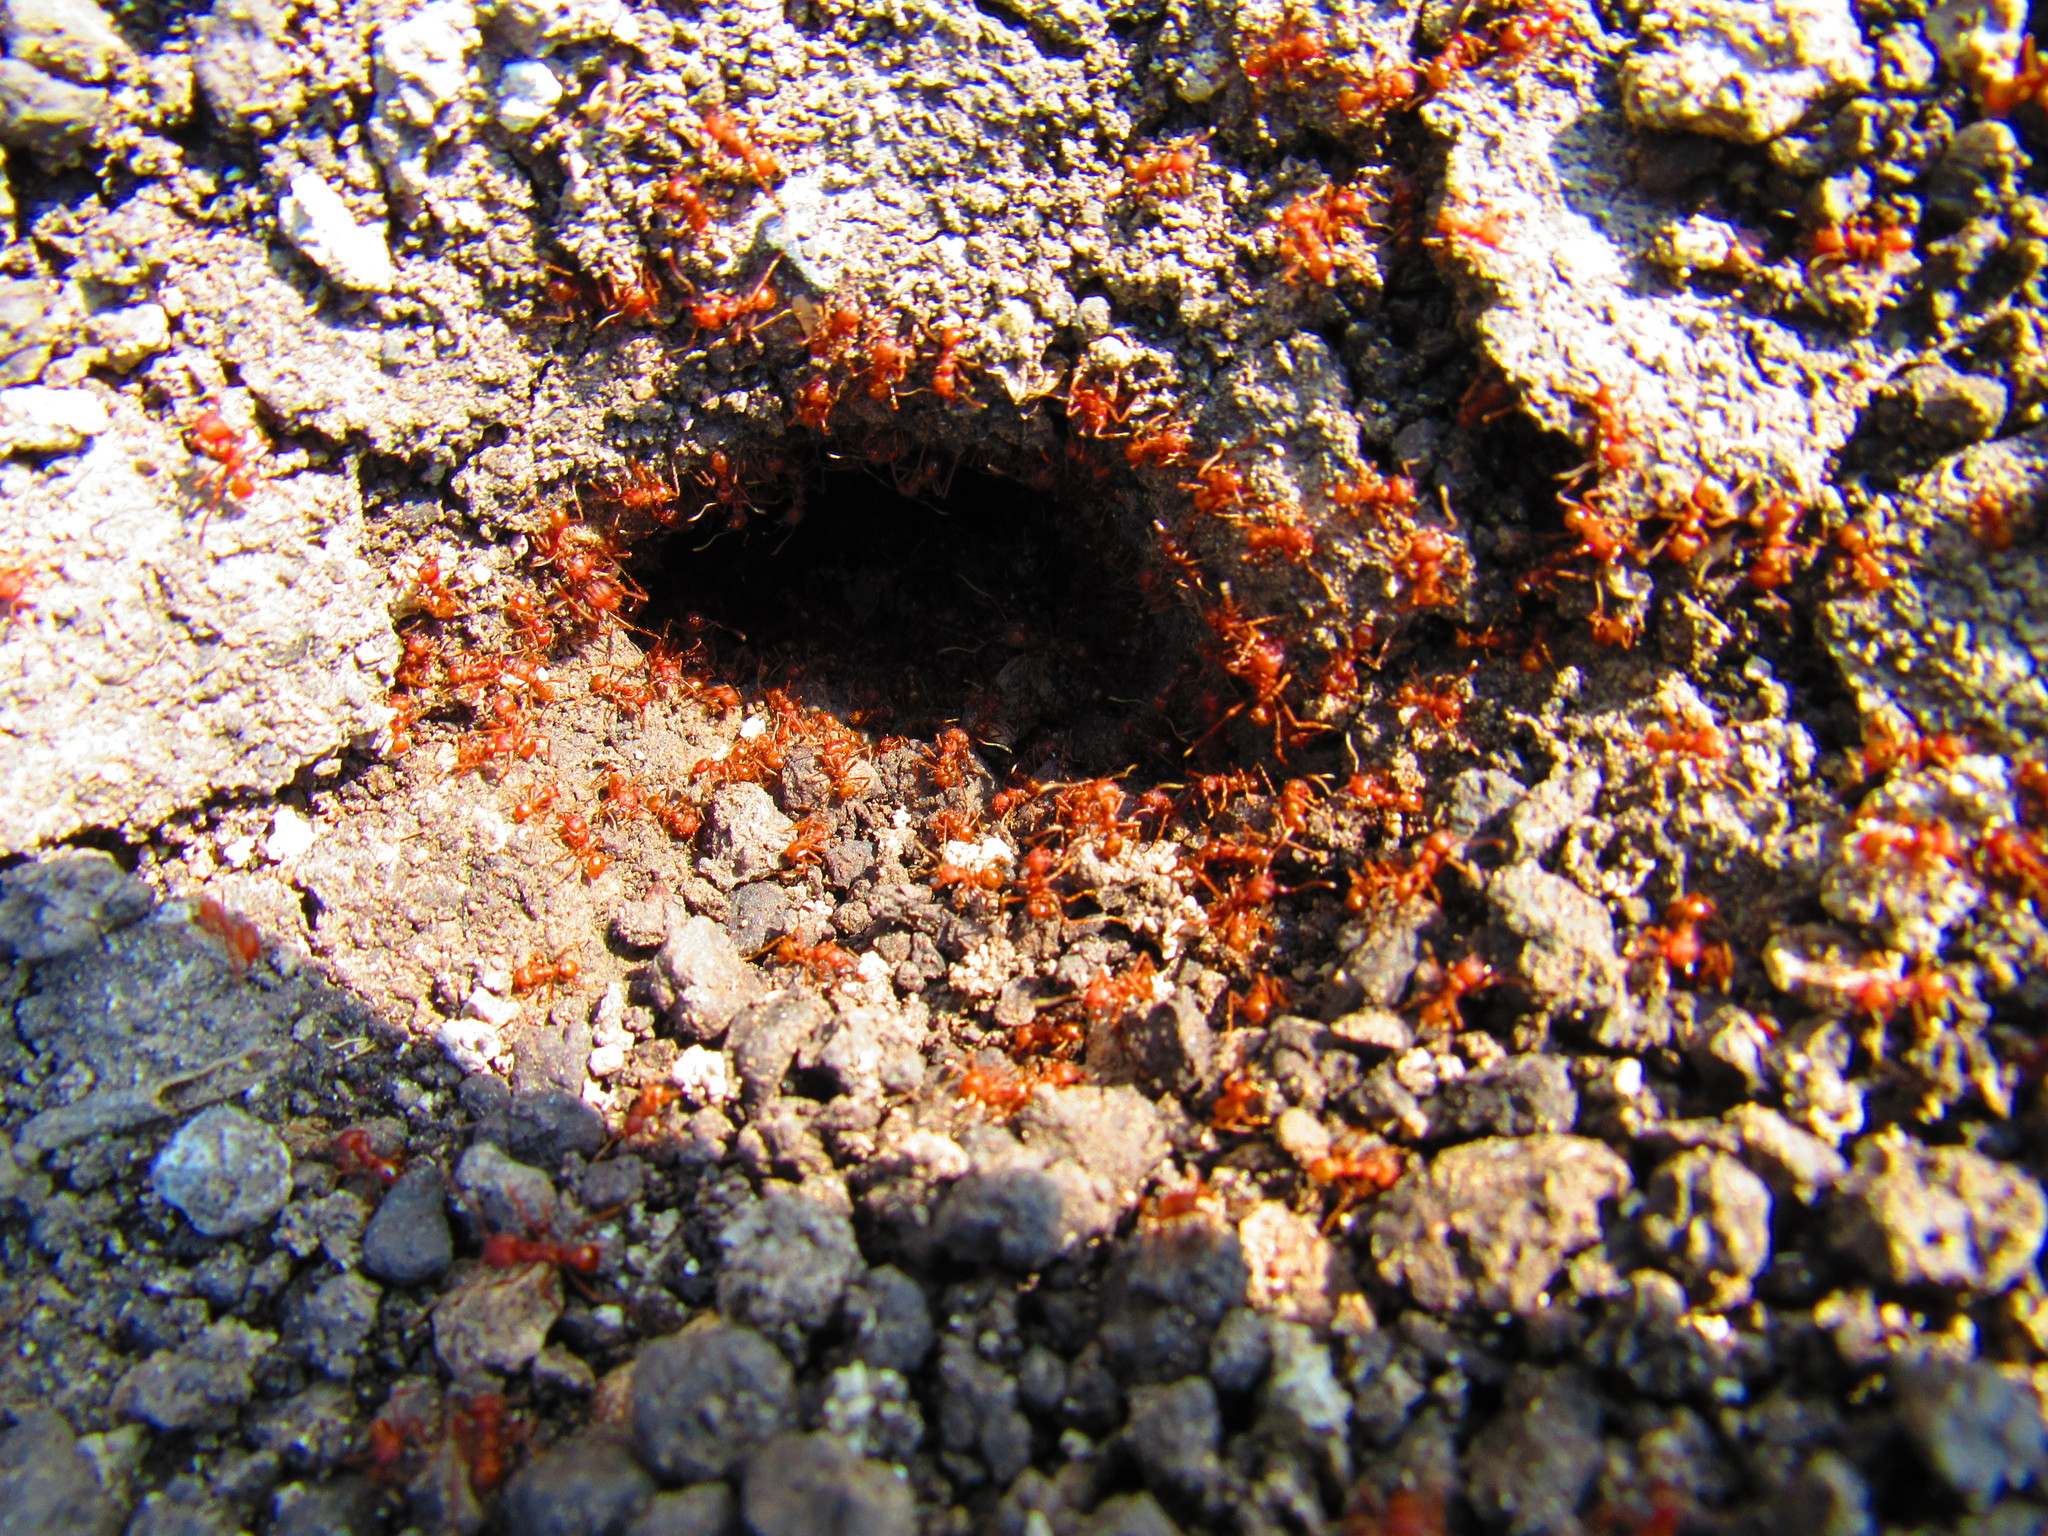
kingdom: Animalia
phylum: Arthropoda
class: Insecta
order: Hymenoptera
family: Formicidae
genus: Atta
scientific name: Atta mexicana
